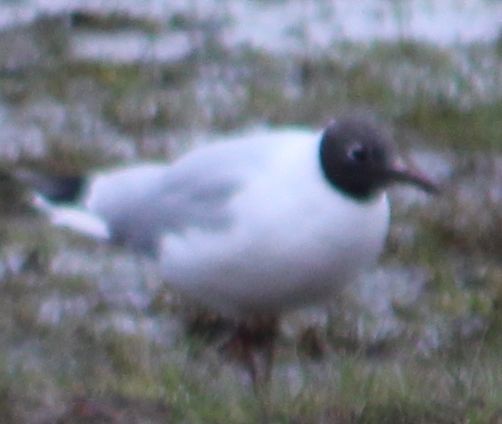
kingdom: Animalia
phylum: Chordata
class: Aves
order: Charadriiformes
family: Laridae
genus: Chroicocephalus
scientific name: Chroicocephalus ridibundus
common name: Black-headed gull
